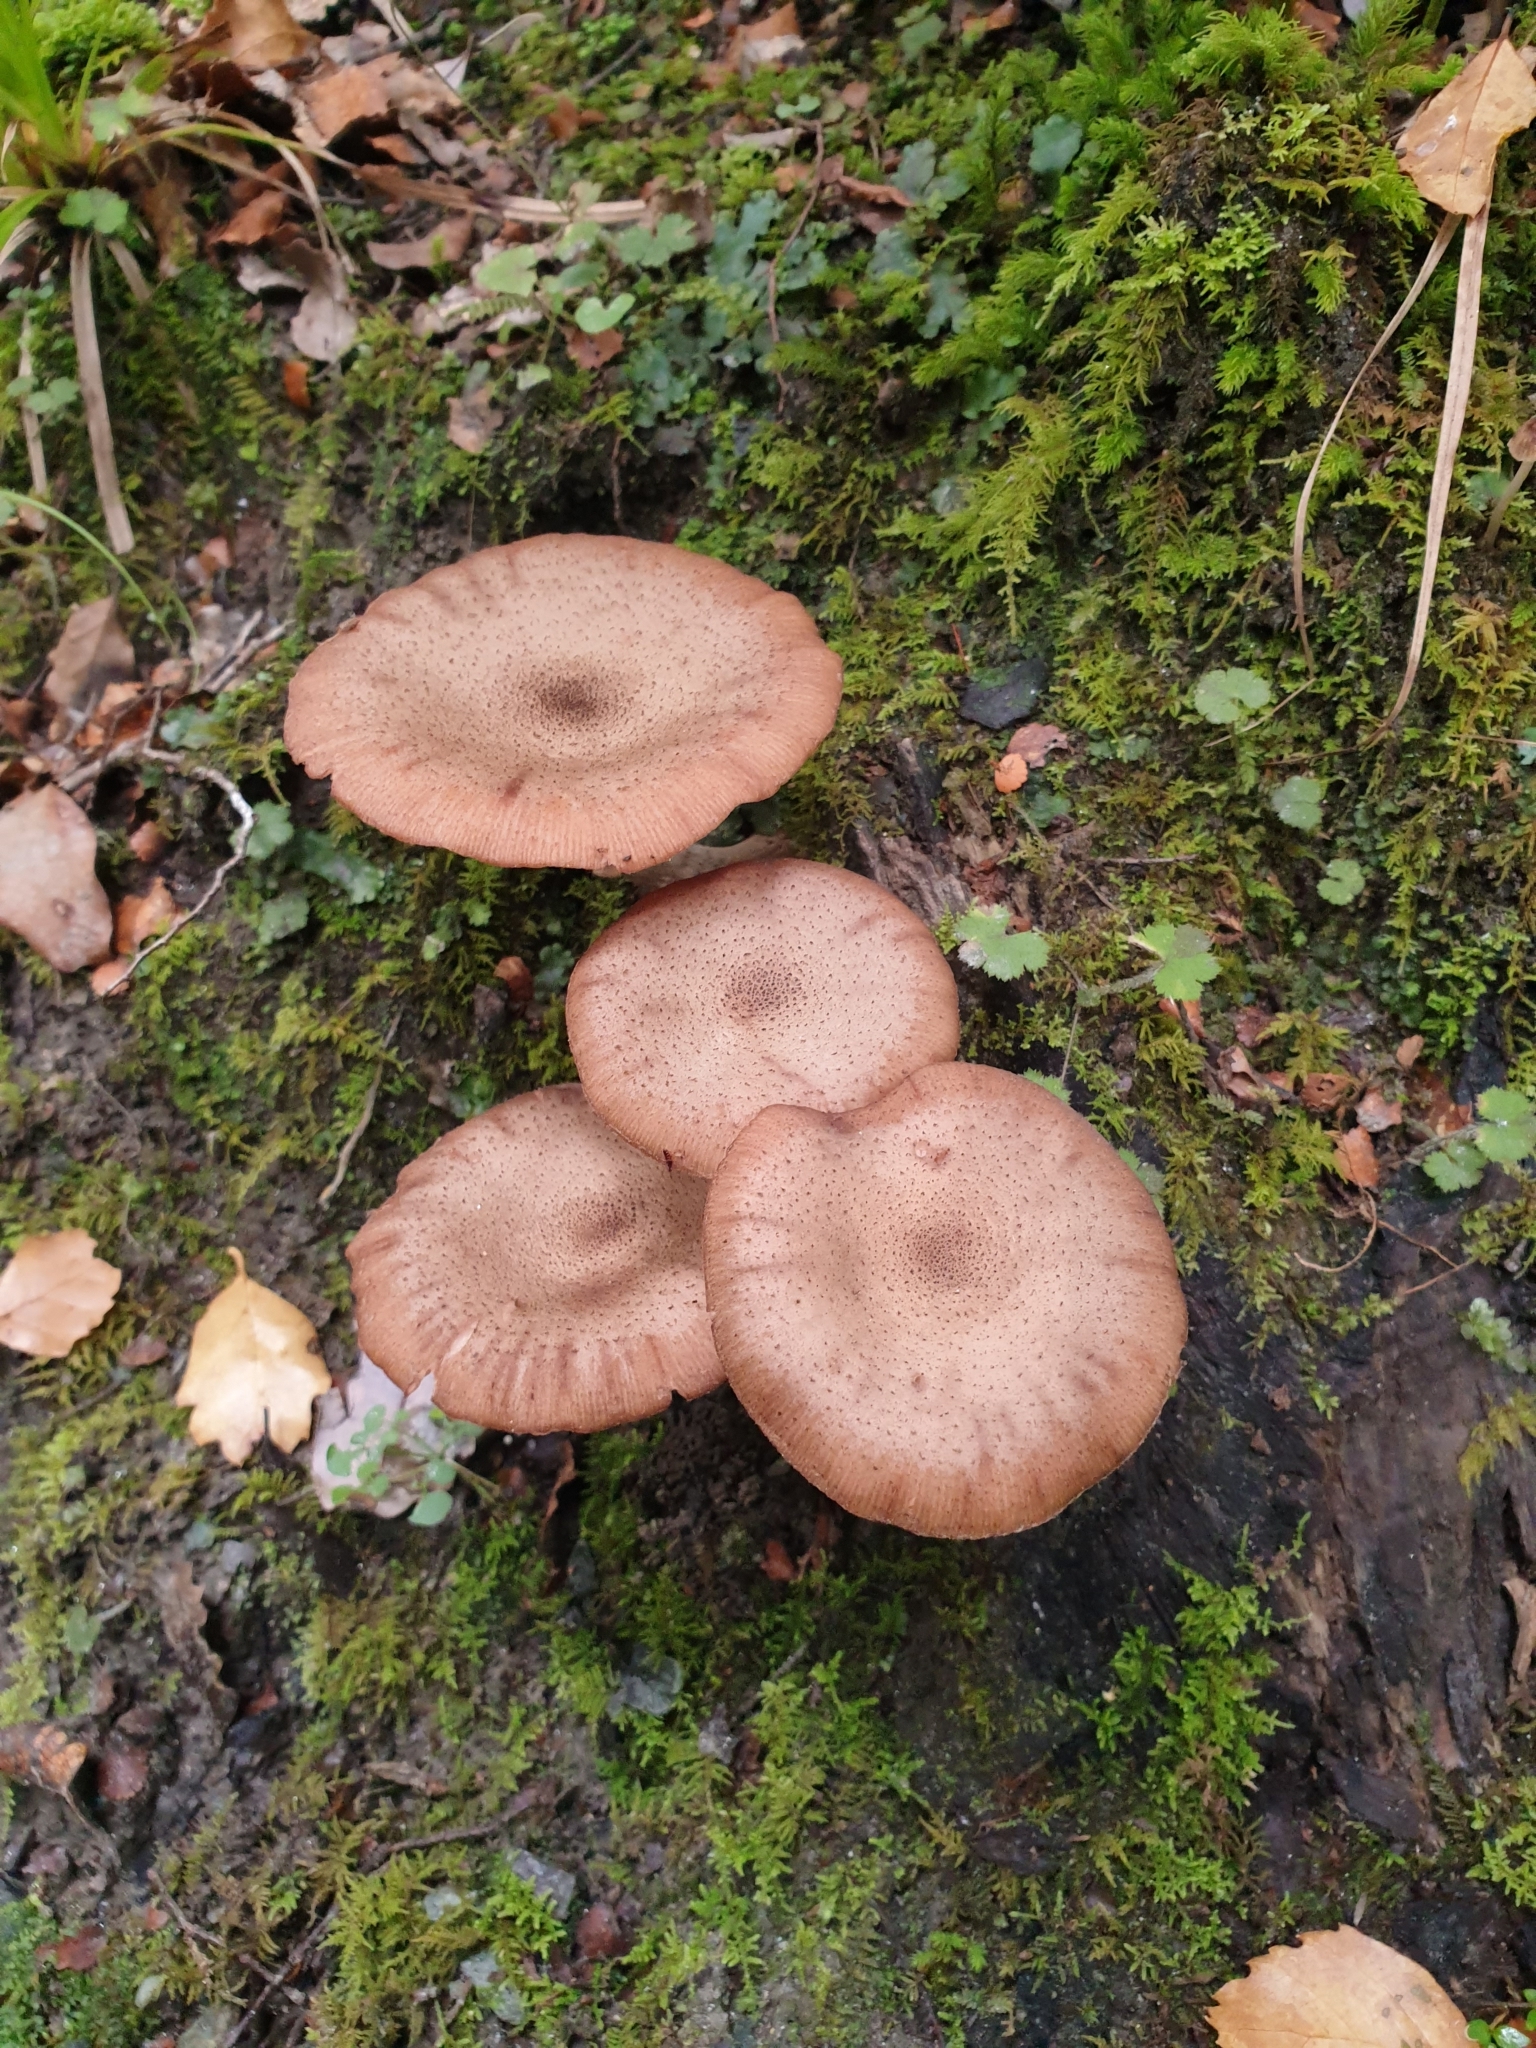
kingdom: Fungi
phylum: Basidiomycota
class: Agaricomycetes
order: Agaricales
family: Physalacriaceae
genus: Armillaria
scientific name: Armillaria novae-zelandiae
